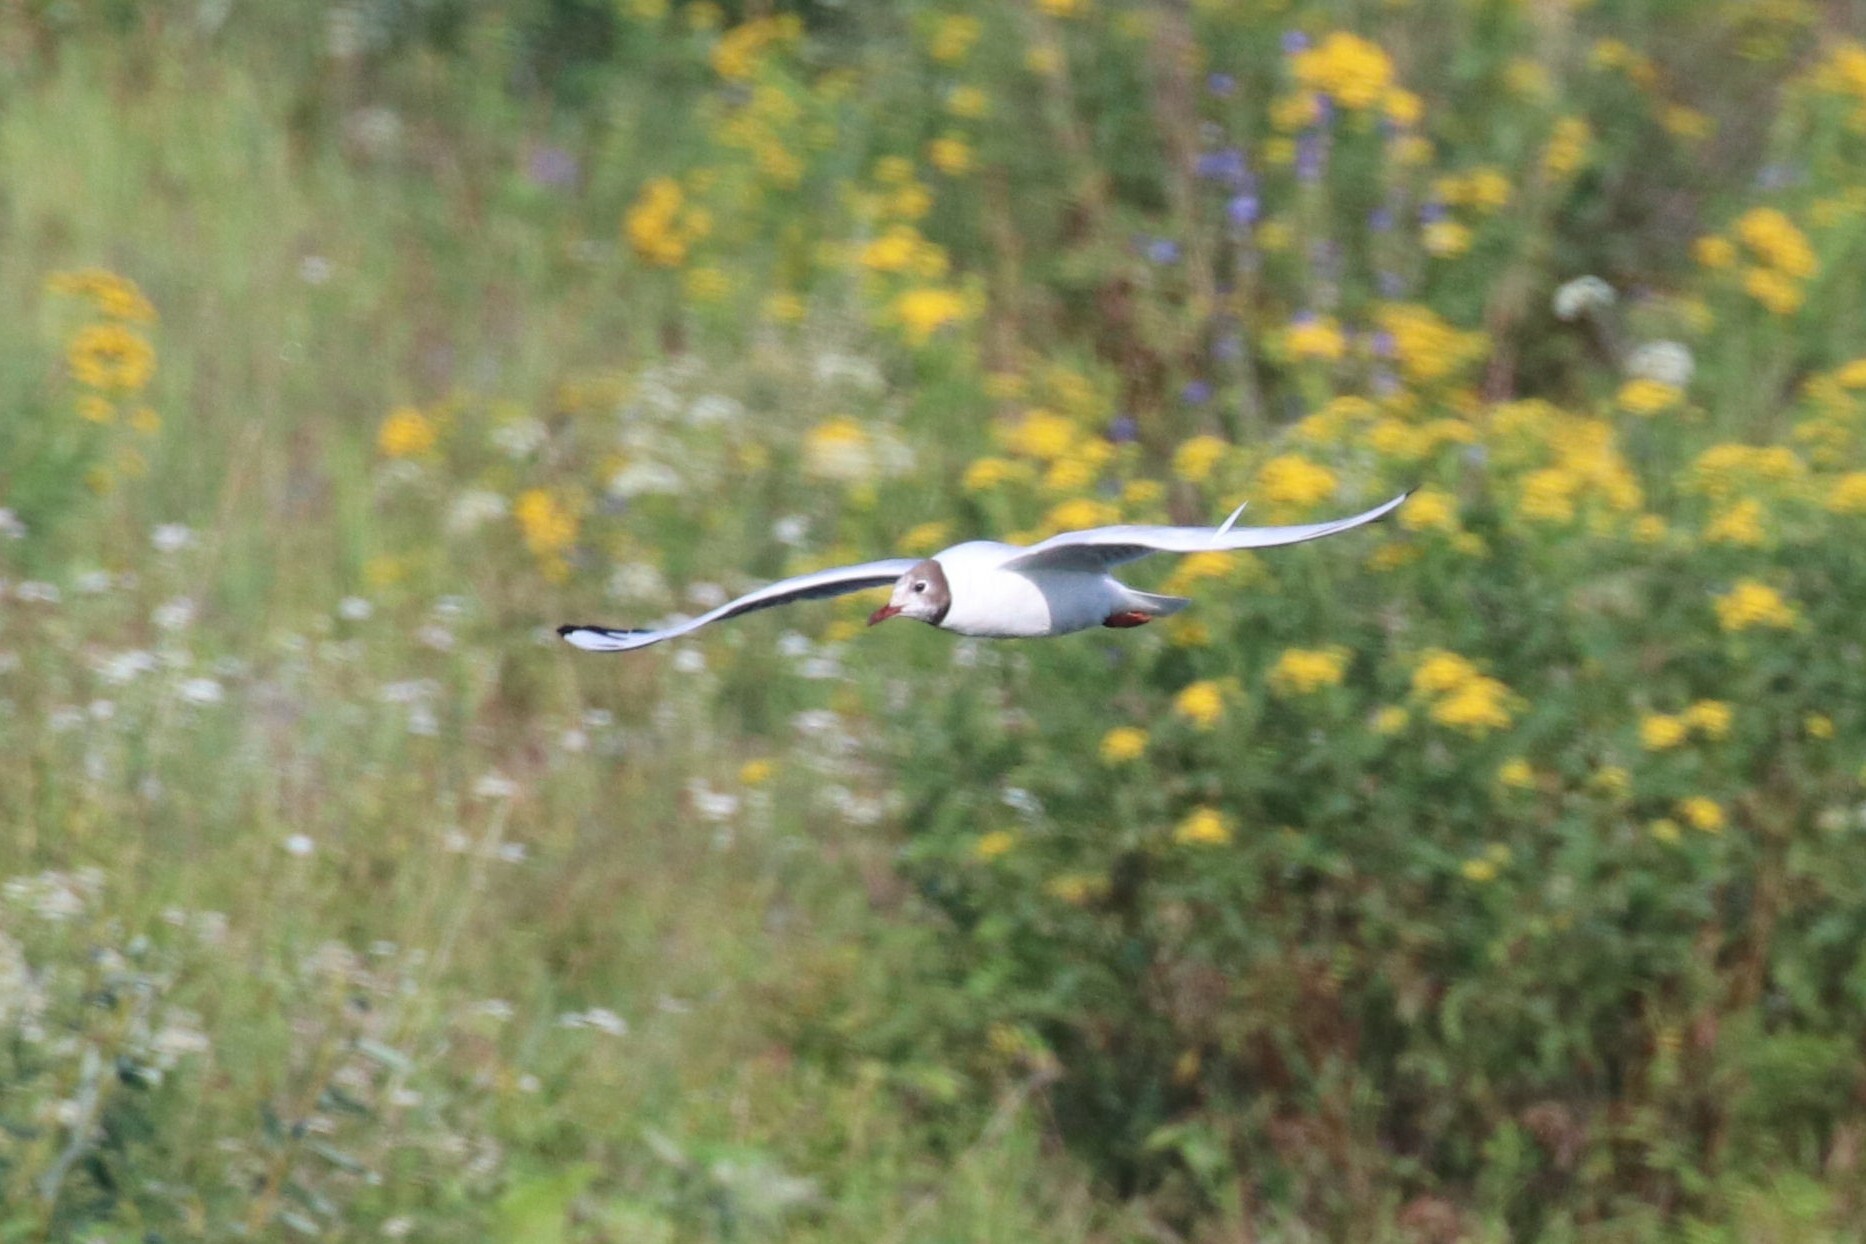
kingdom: Animalia
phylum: Chordata
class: Aves
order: Charadriiformes
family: Laridae
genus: Chroicocephalus
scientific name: Chroicocephalus ridibundus
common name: Black-headed gull
